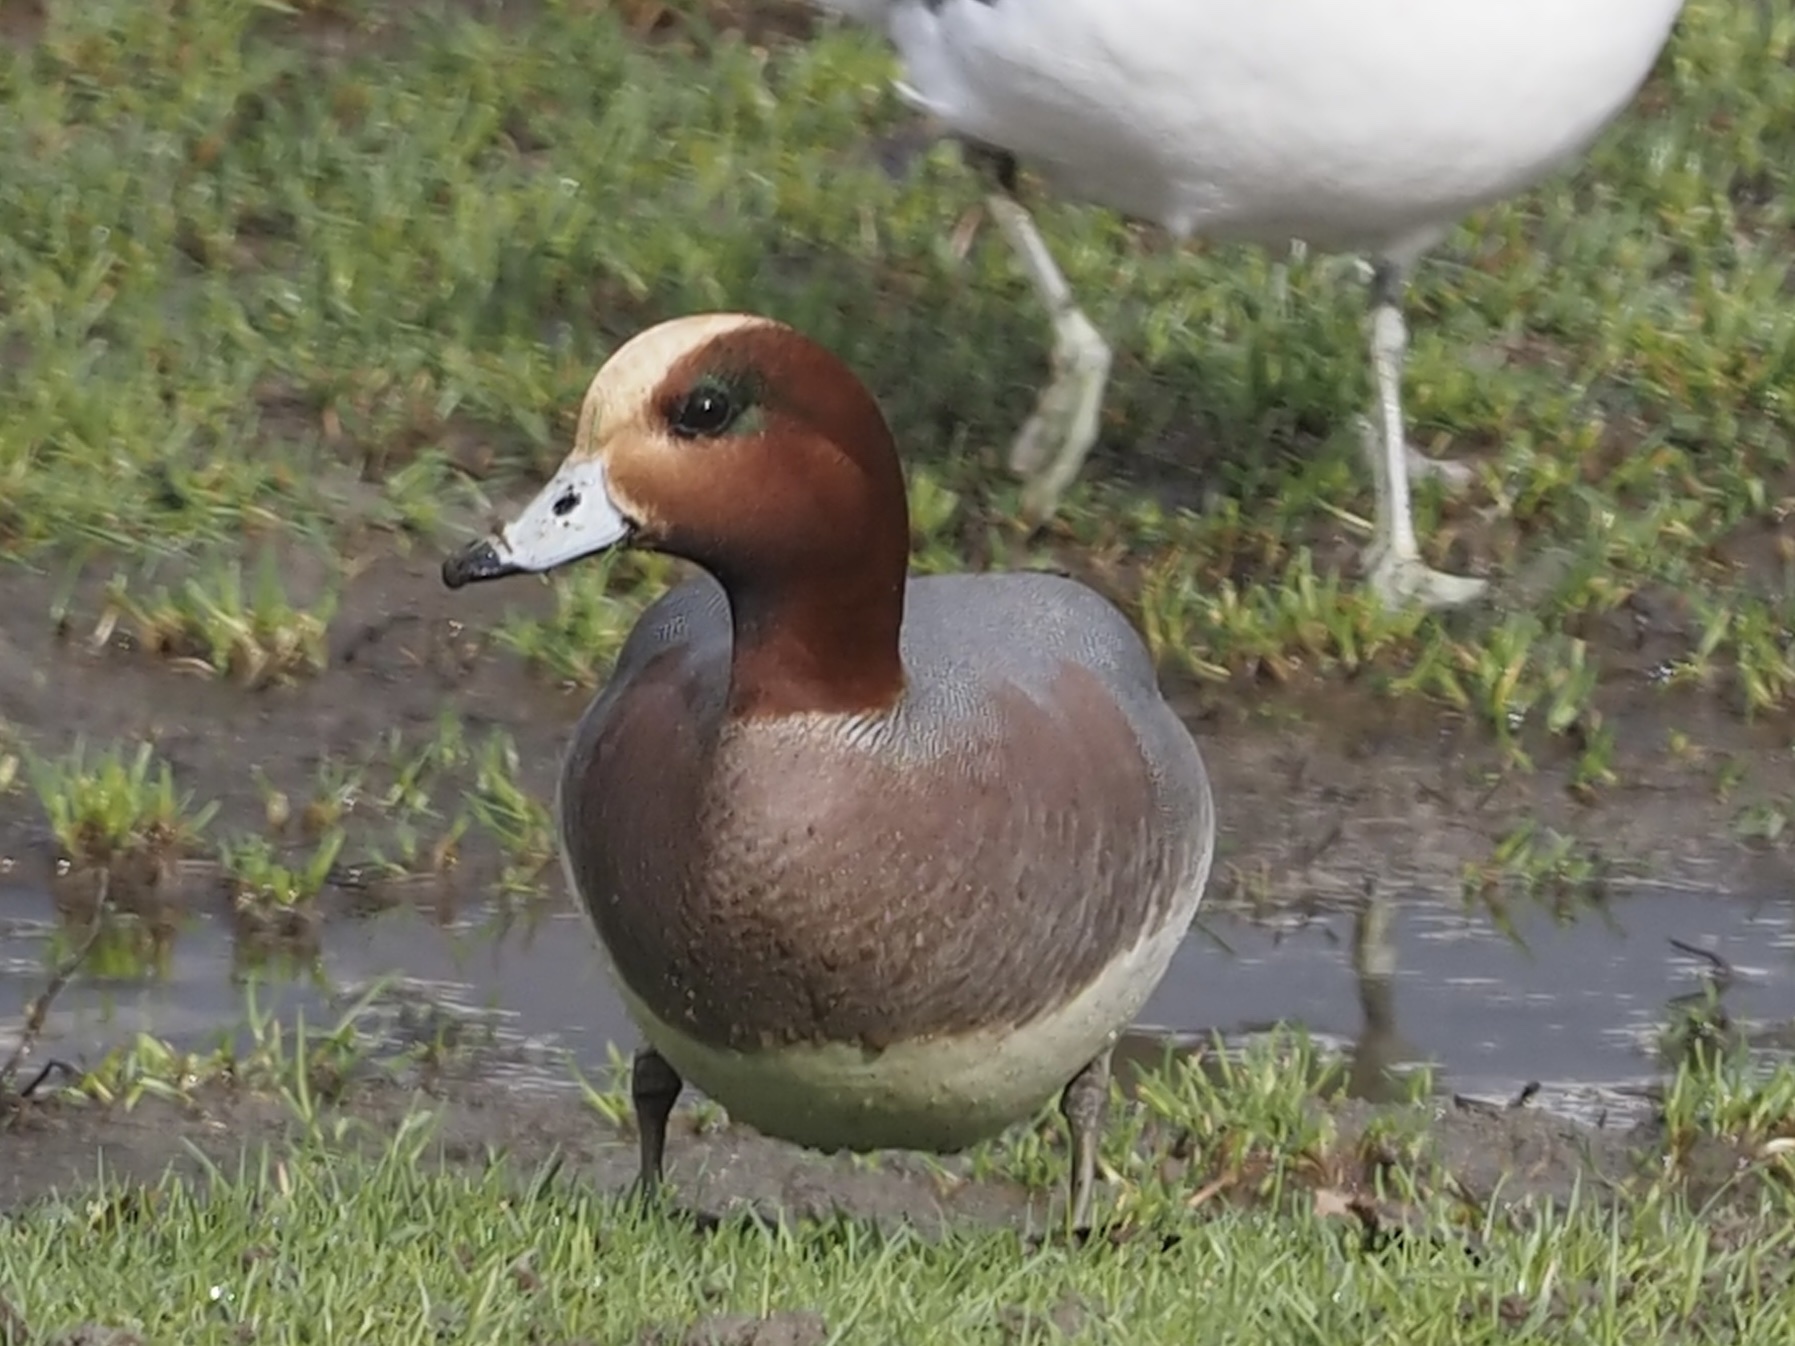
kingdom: Animalia
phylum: Chordata
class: Aves
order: Anseriformes
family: Anatidae
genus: Mareca
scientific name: Mareca penelope
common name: Eurasian wigeon
